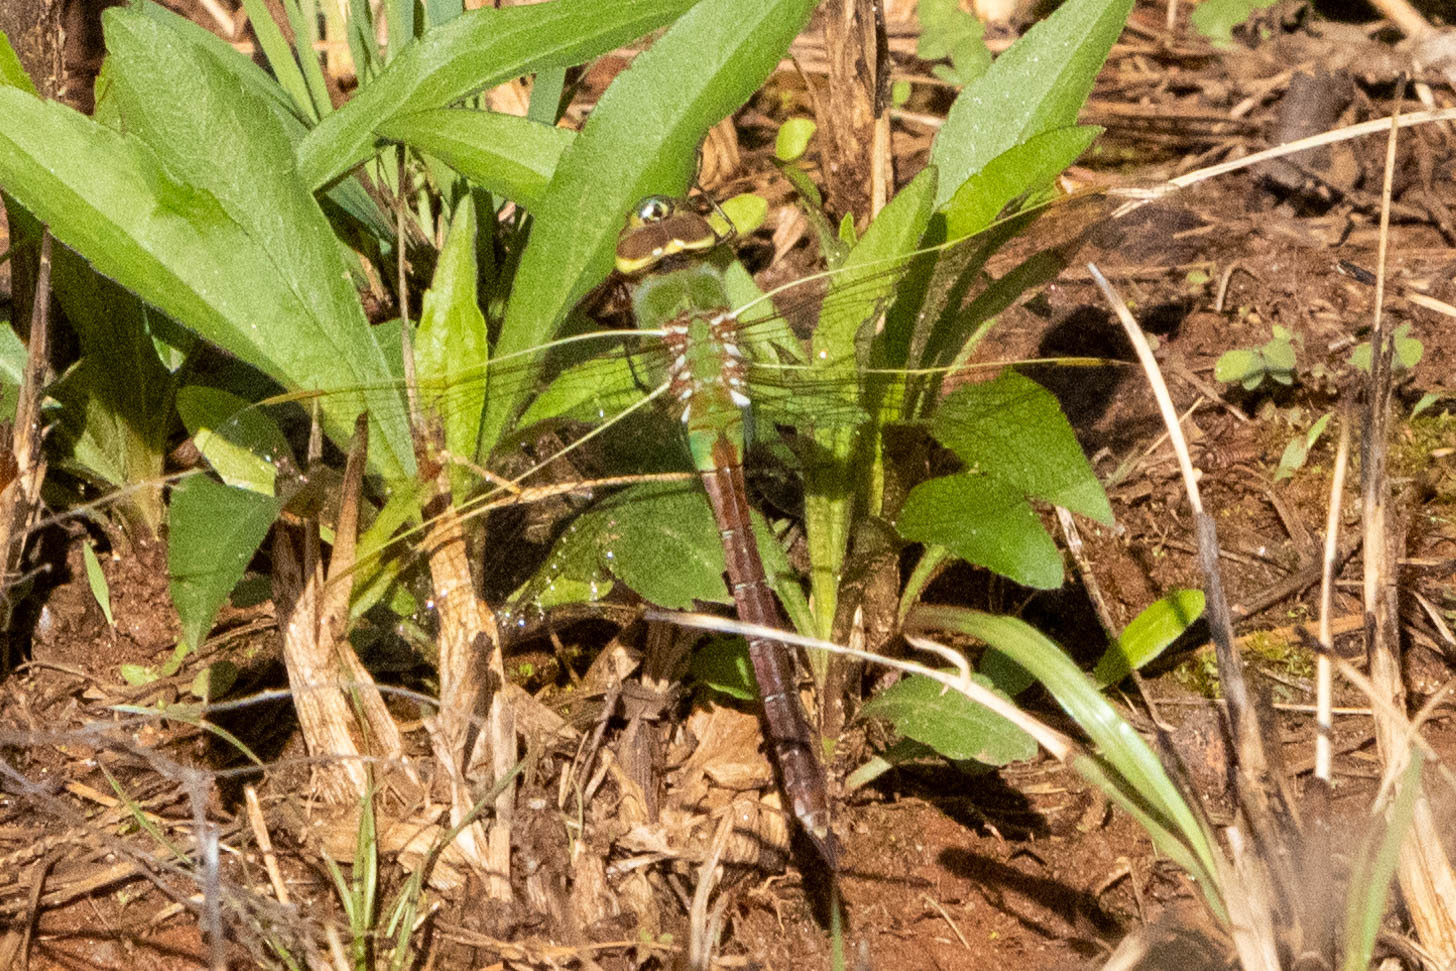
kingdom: Animalia
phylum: Arthropoda
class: Insecta
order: Odonata
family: Aeshnidae
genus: Anax
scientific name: Anax junius
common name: Common green darner
